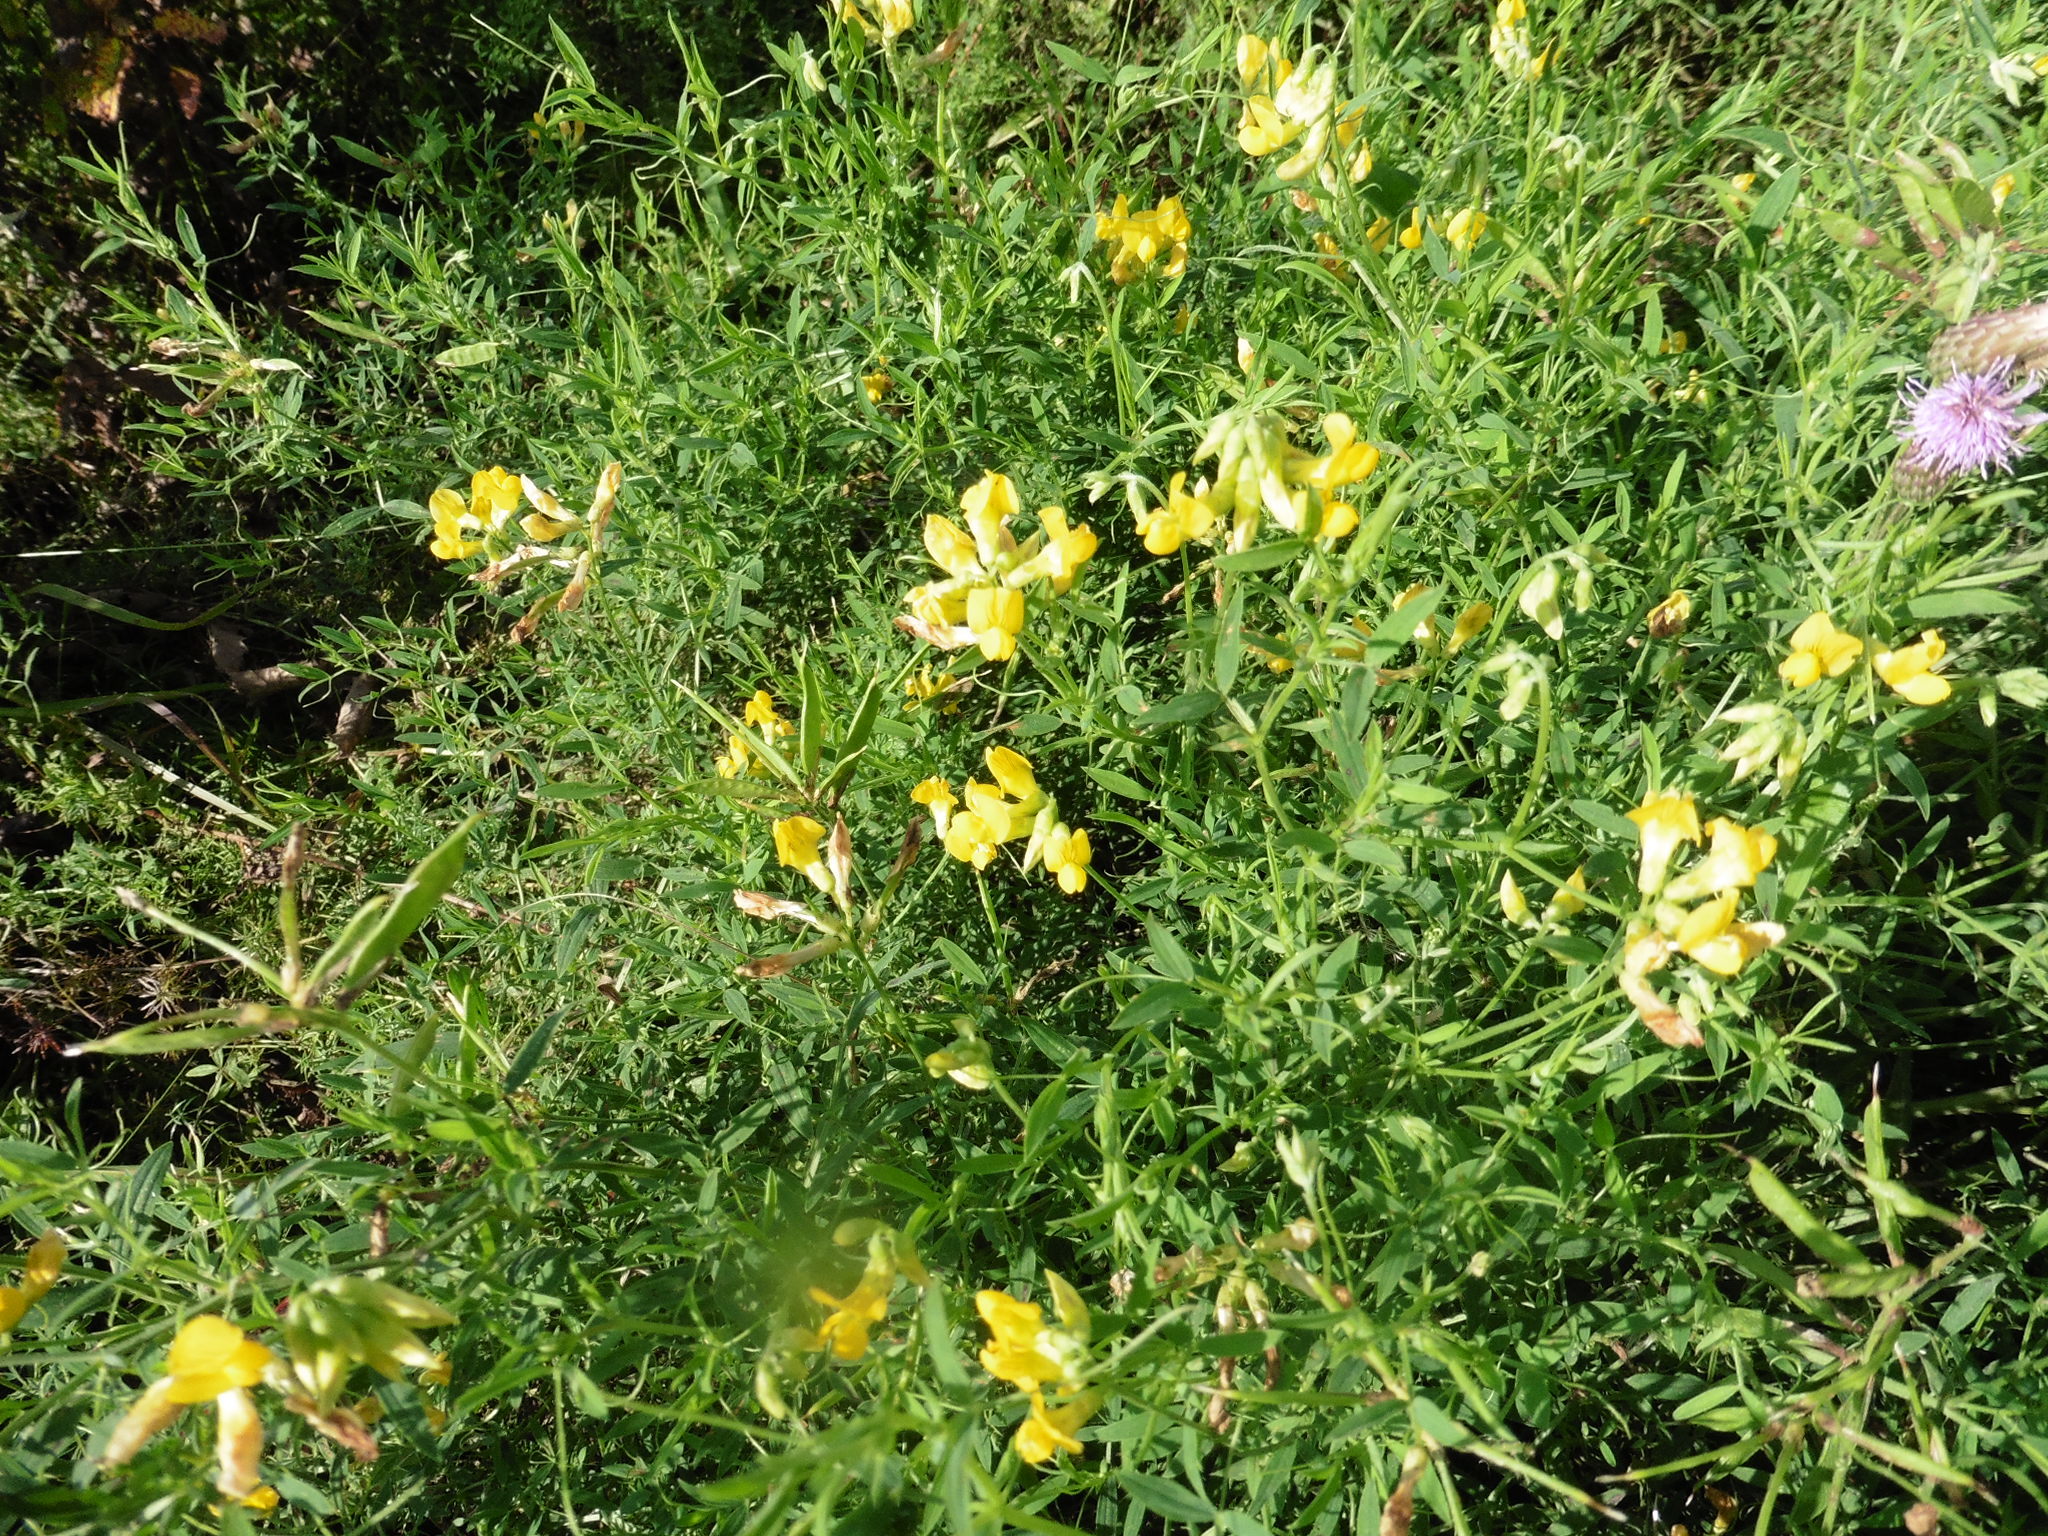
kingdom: Plantae
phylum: Tracheophyta
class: Magnoliopsida
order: Fabales
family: Fabaceae
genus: Lathyrus
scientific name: Lathyrus pratensis
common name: Meadow vetchling
